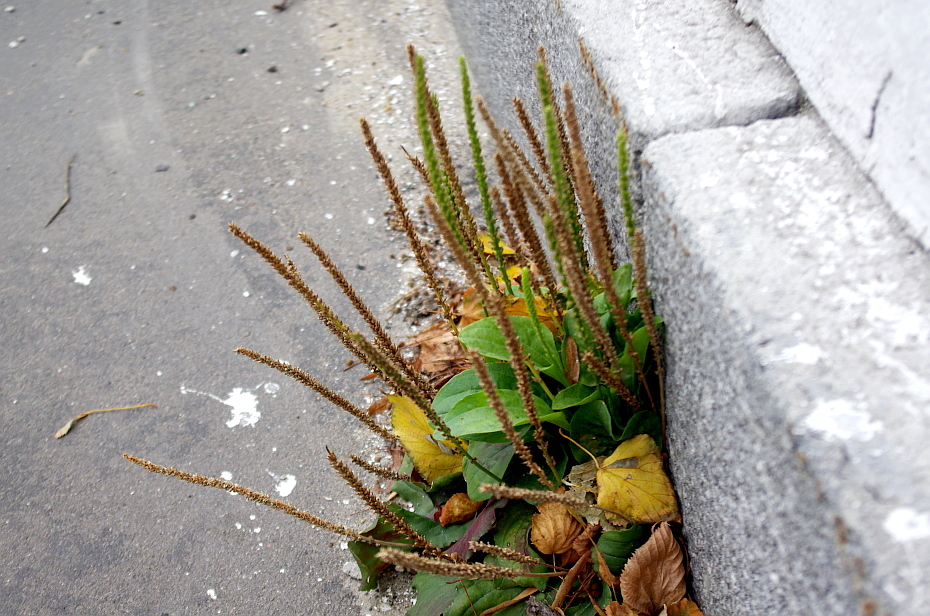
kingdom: Plantae
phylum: Tracheophyta
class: Magnoliopsida
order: Lamiales
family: Plantaginaceae
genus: Plantago
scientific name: Plantago major
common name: Common plantain
